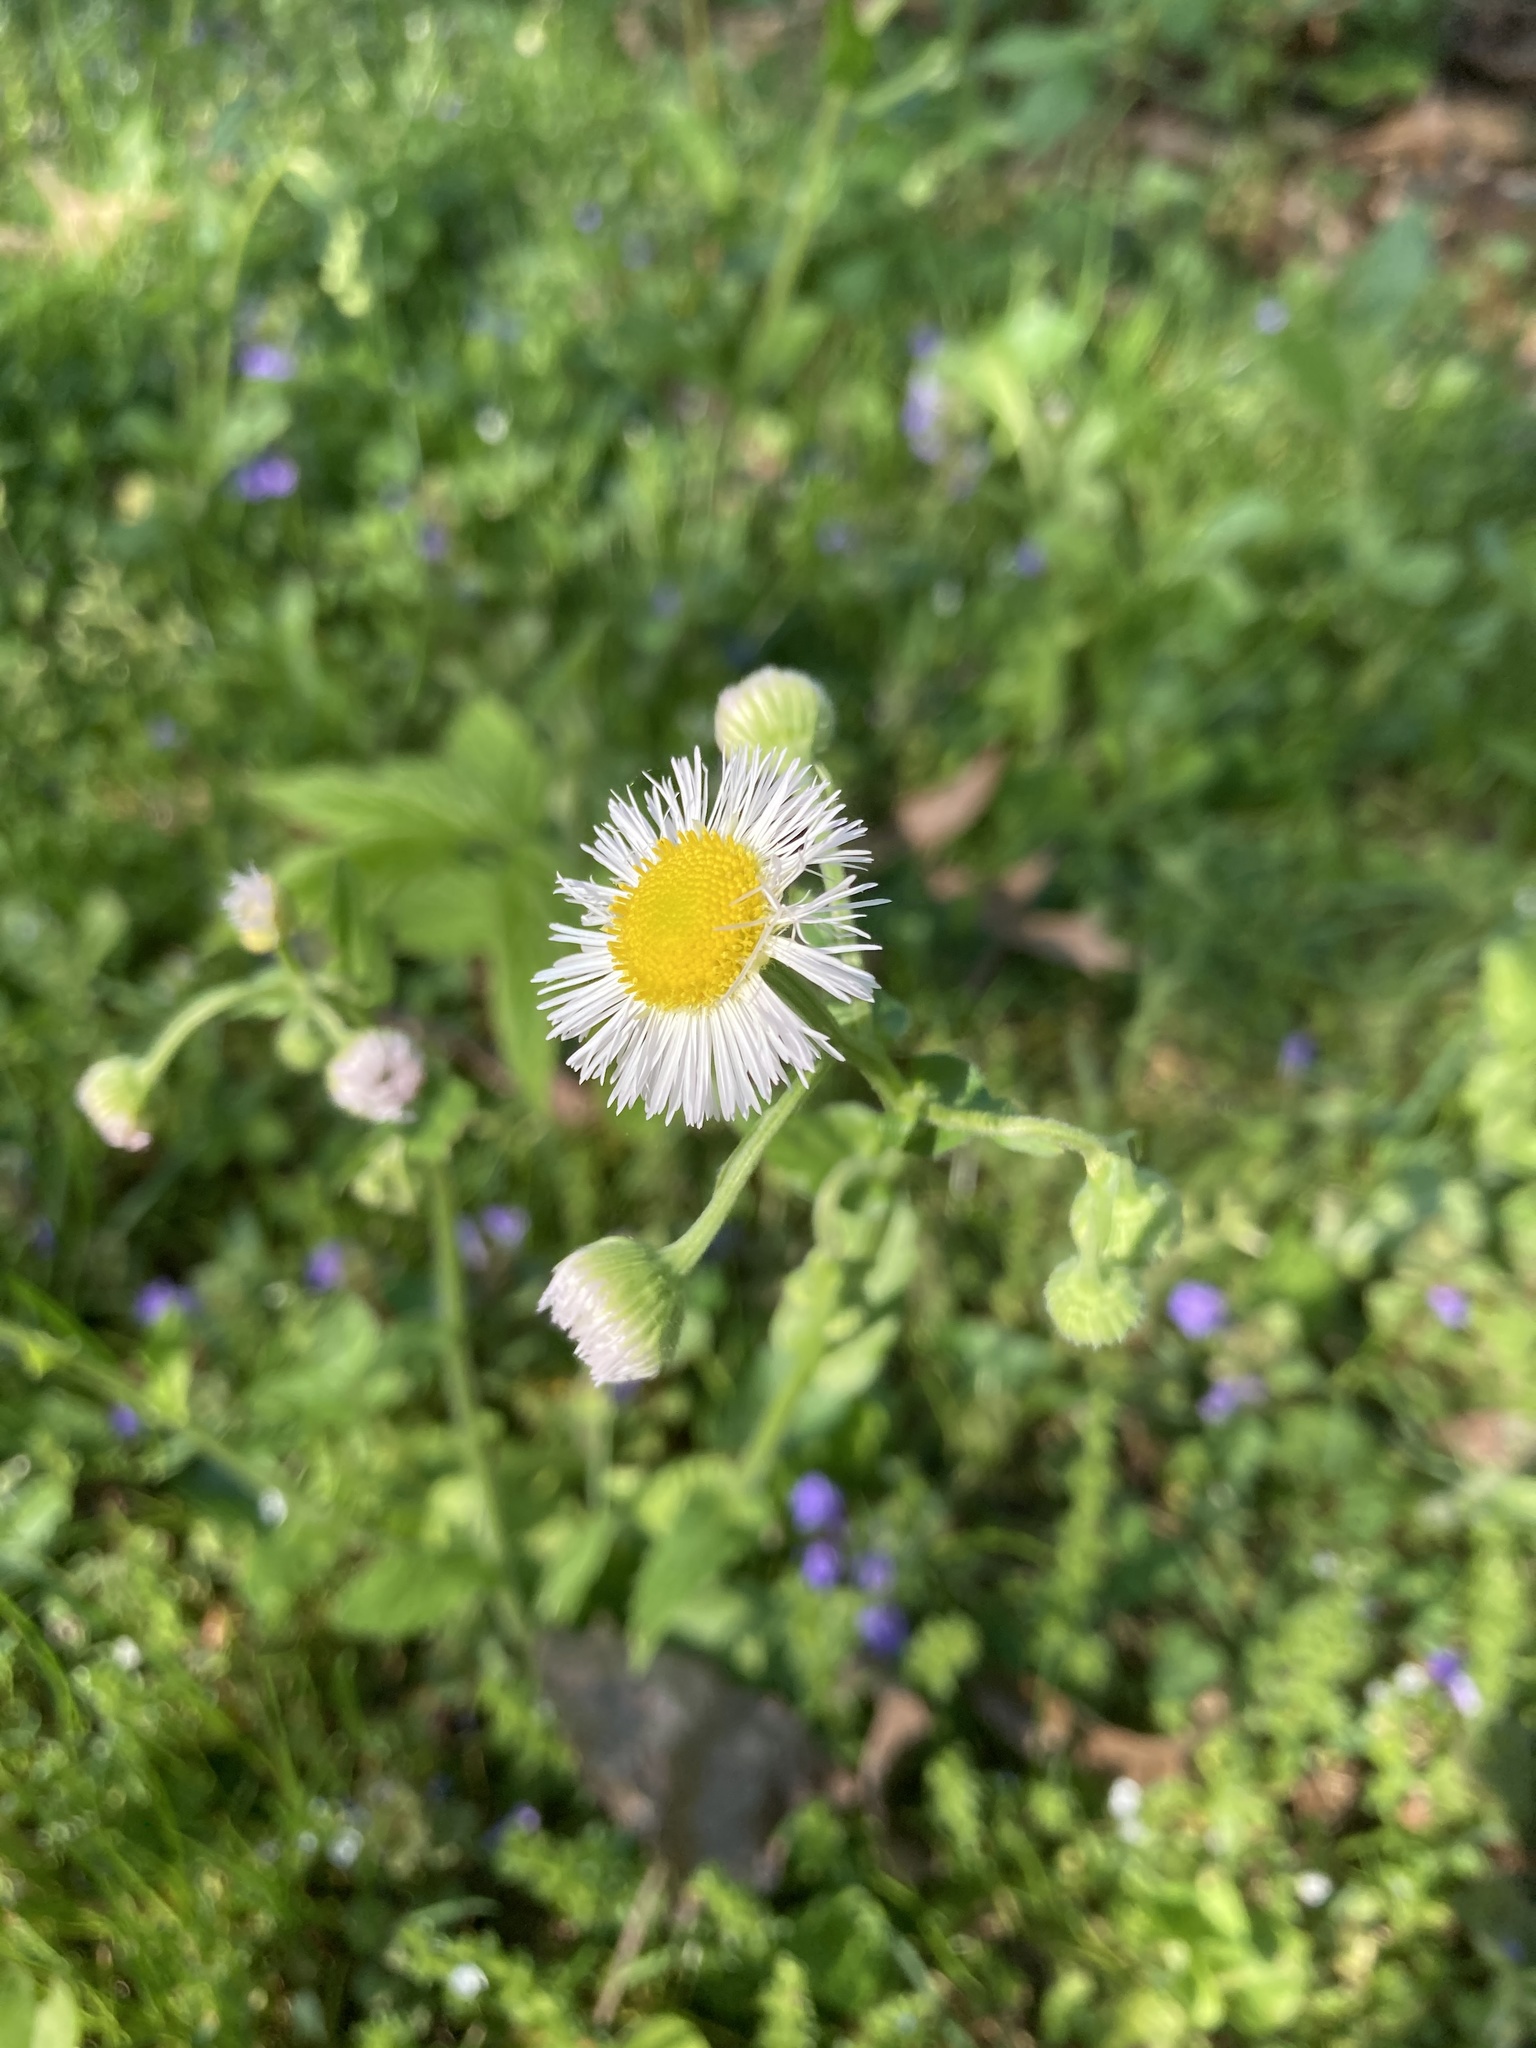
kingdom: Plantae
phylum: Tracheophyta
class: Magnoliopsida
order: Asterales
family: Asteraceae
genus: Erigeron
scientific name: Erigeron philadelphicus
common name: Robin's-plantain
